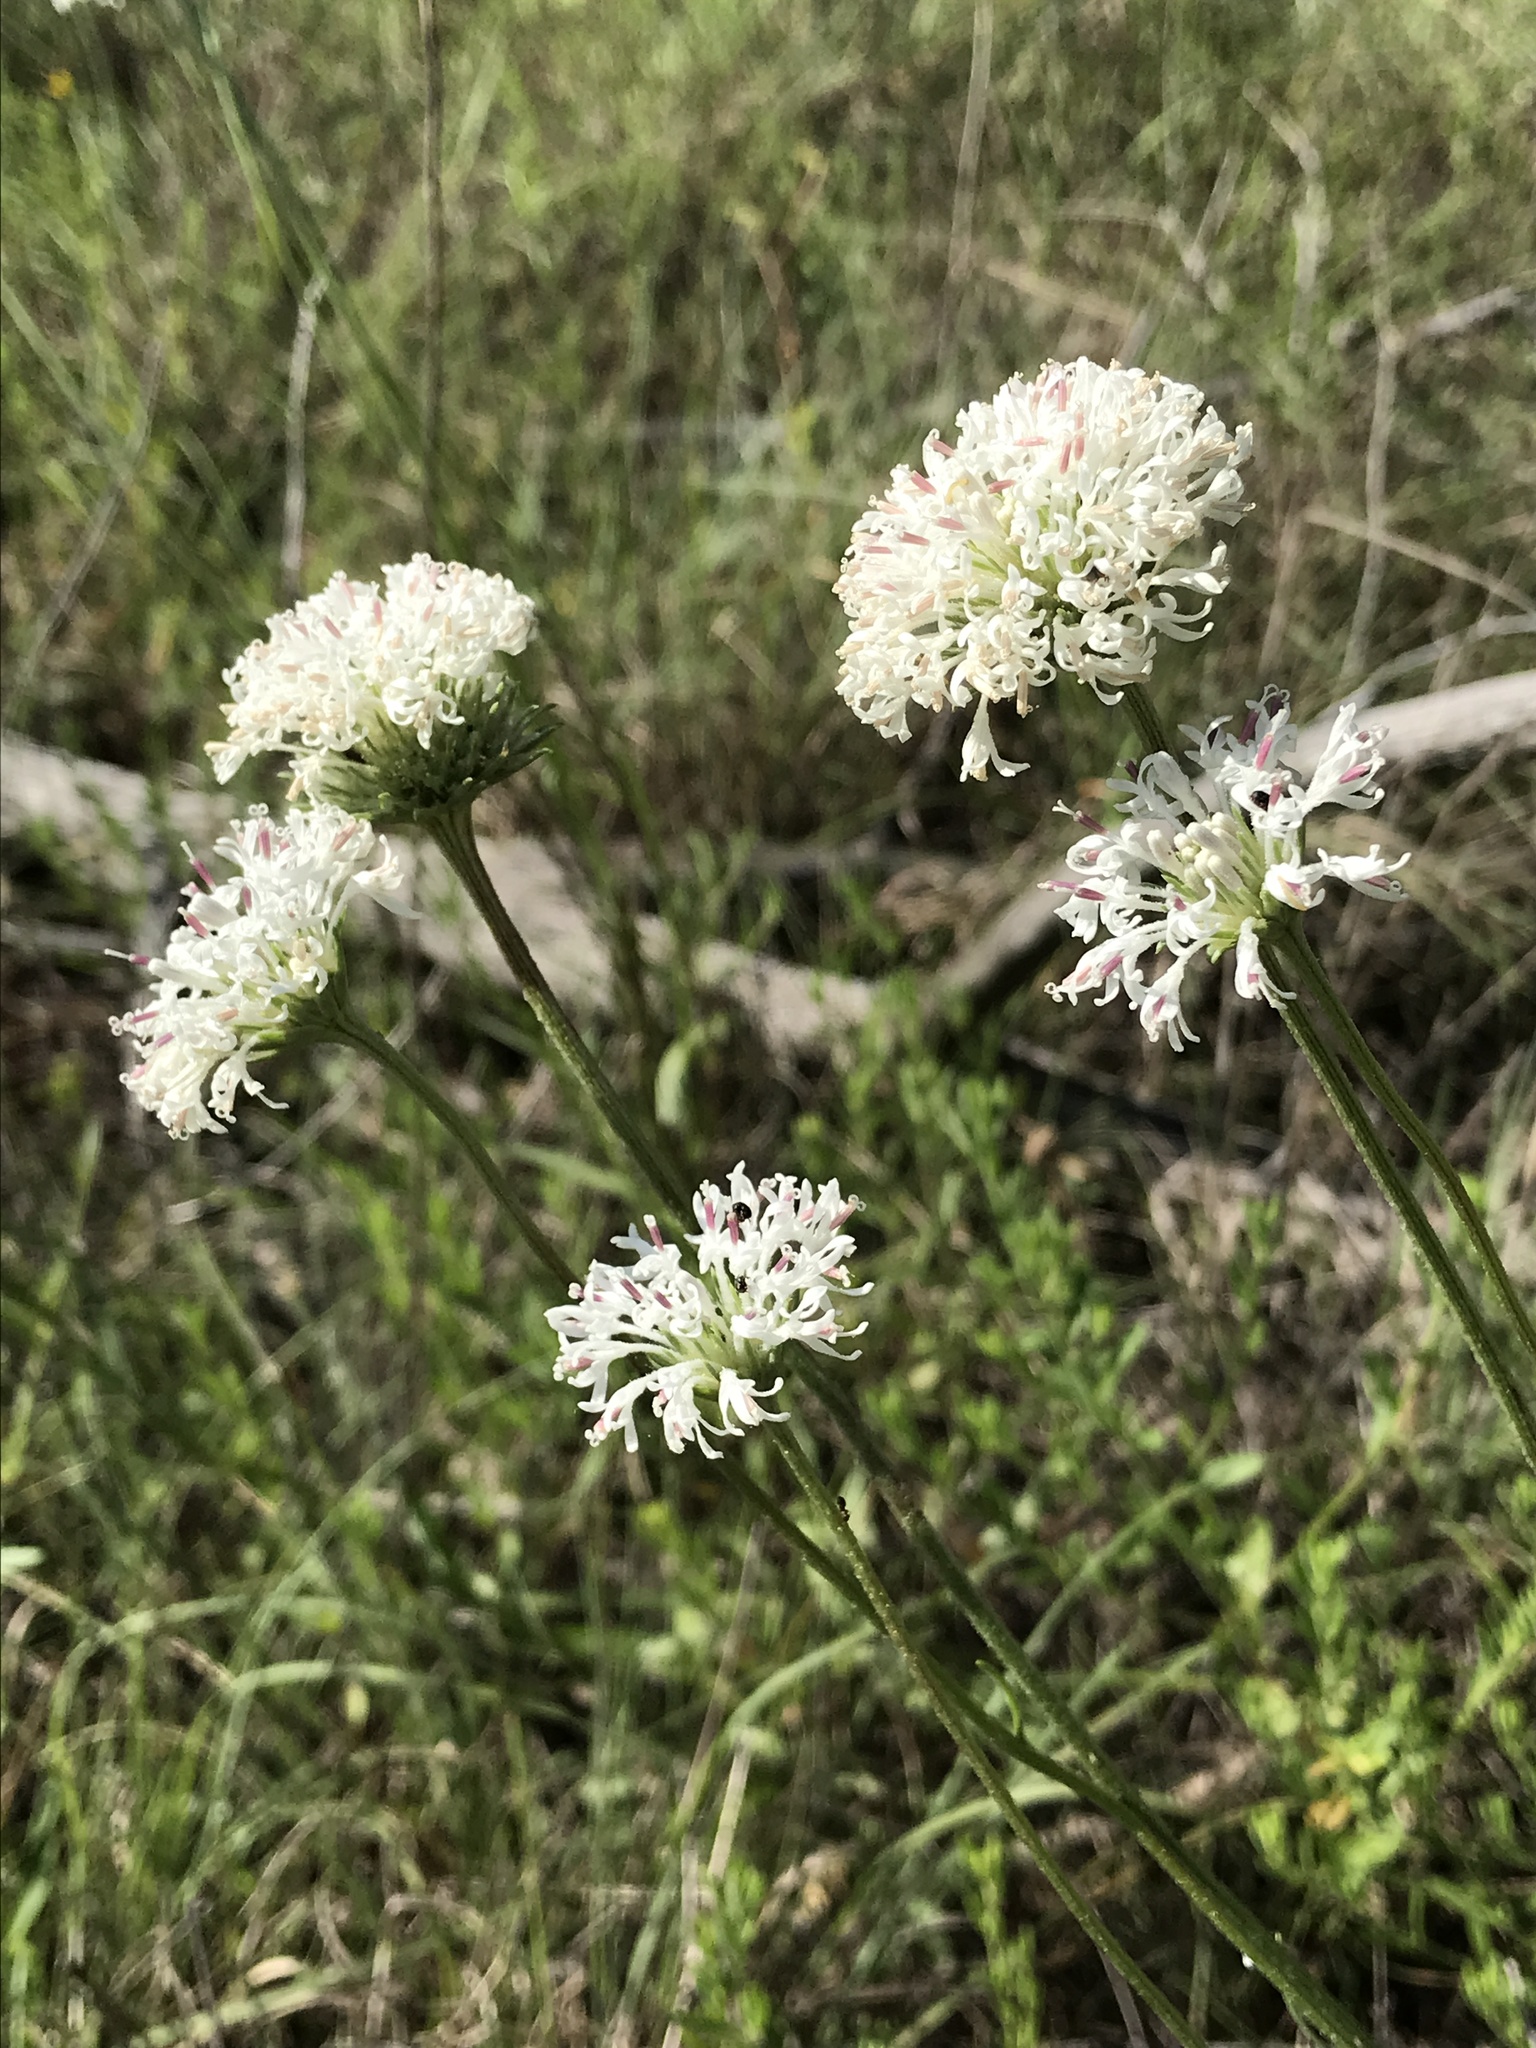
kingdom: Plantae
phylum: Tracheophyta
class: Magnoliopsida
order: Asterales
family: Asteraceae
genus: Marshallia
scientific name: Marshallia caespitosa
